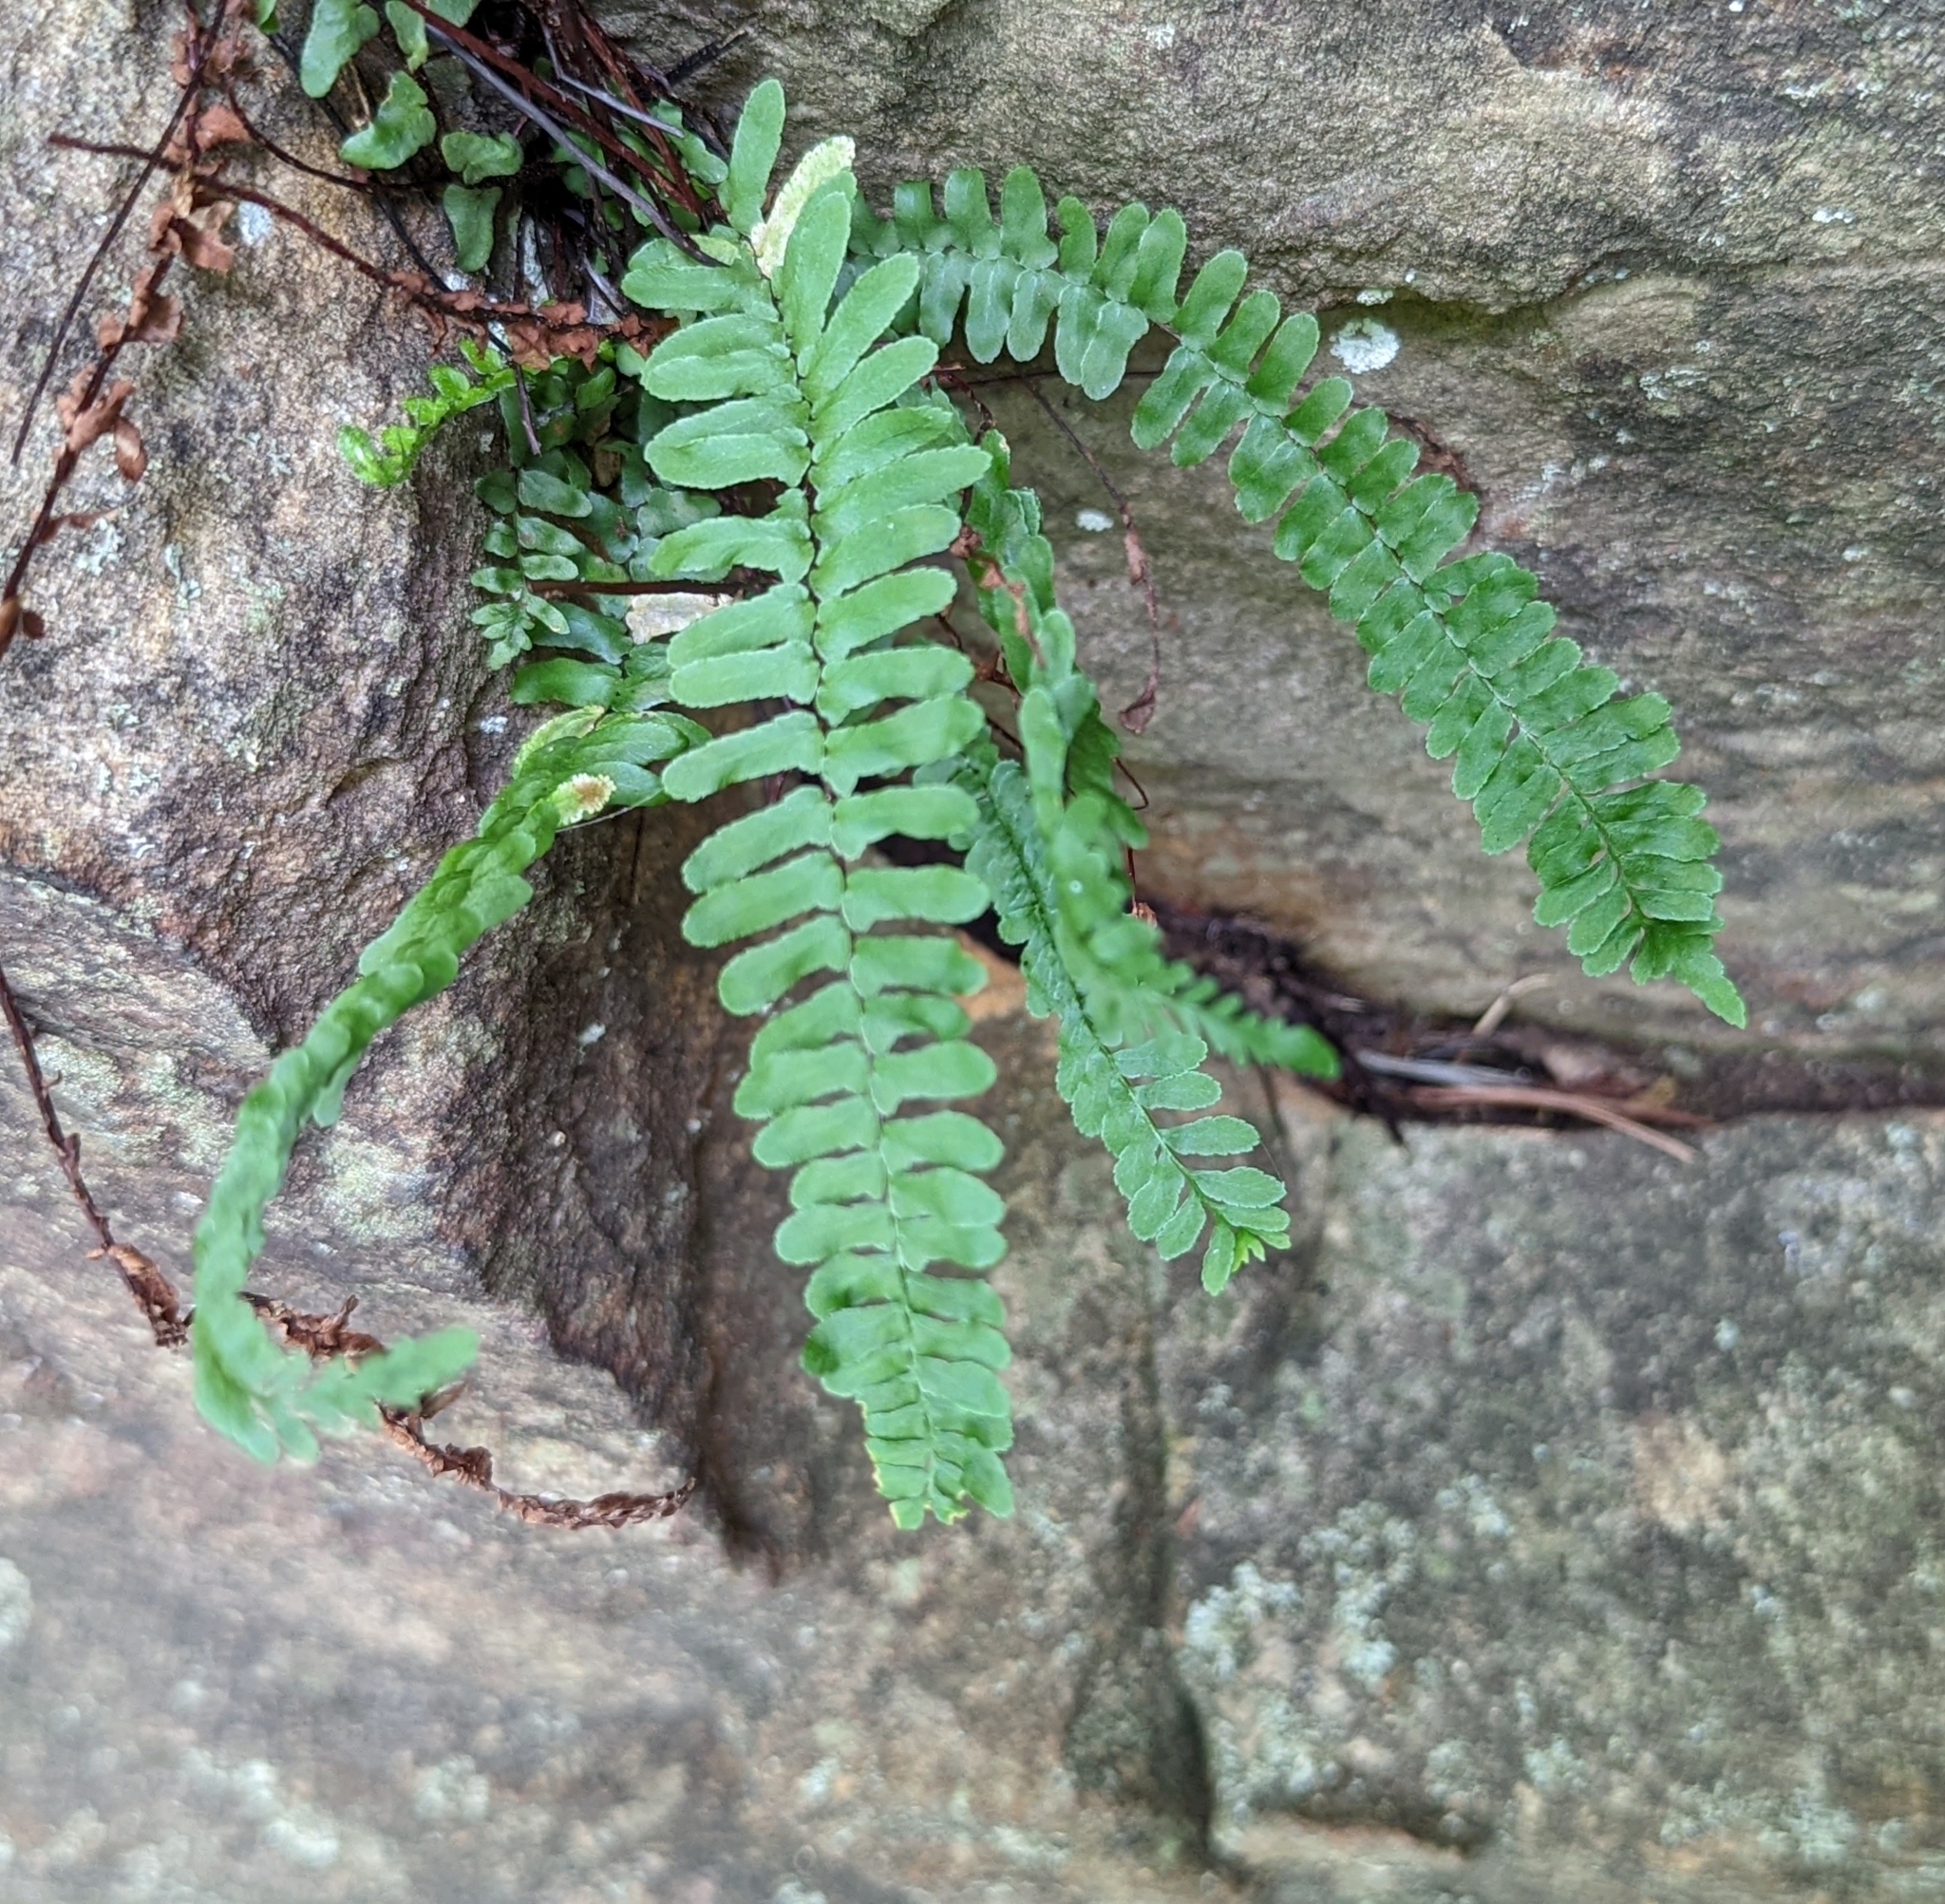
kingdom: Plantae
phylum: Tracheophyta
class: Polypodiopsida
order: Polypodiales
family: Aspleniaceae
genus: Asplenium
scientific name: Asplenium platyneuron
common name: Ebony spleenwort
